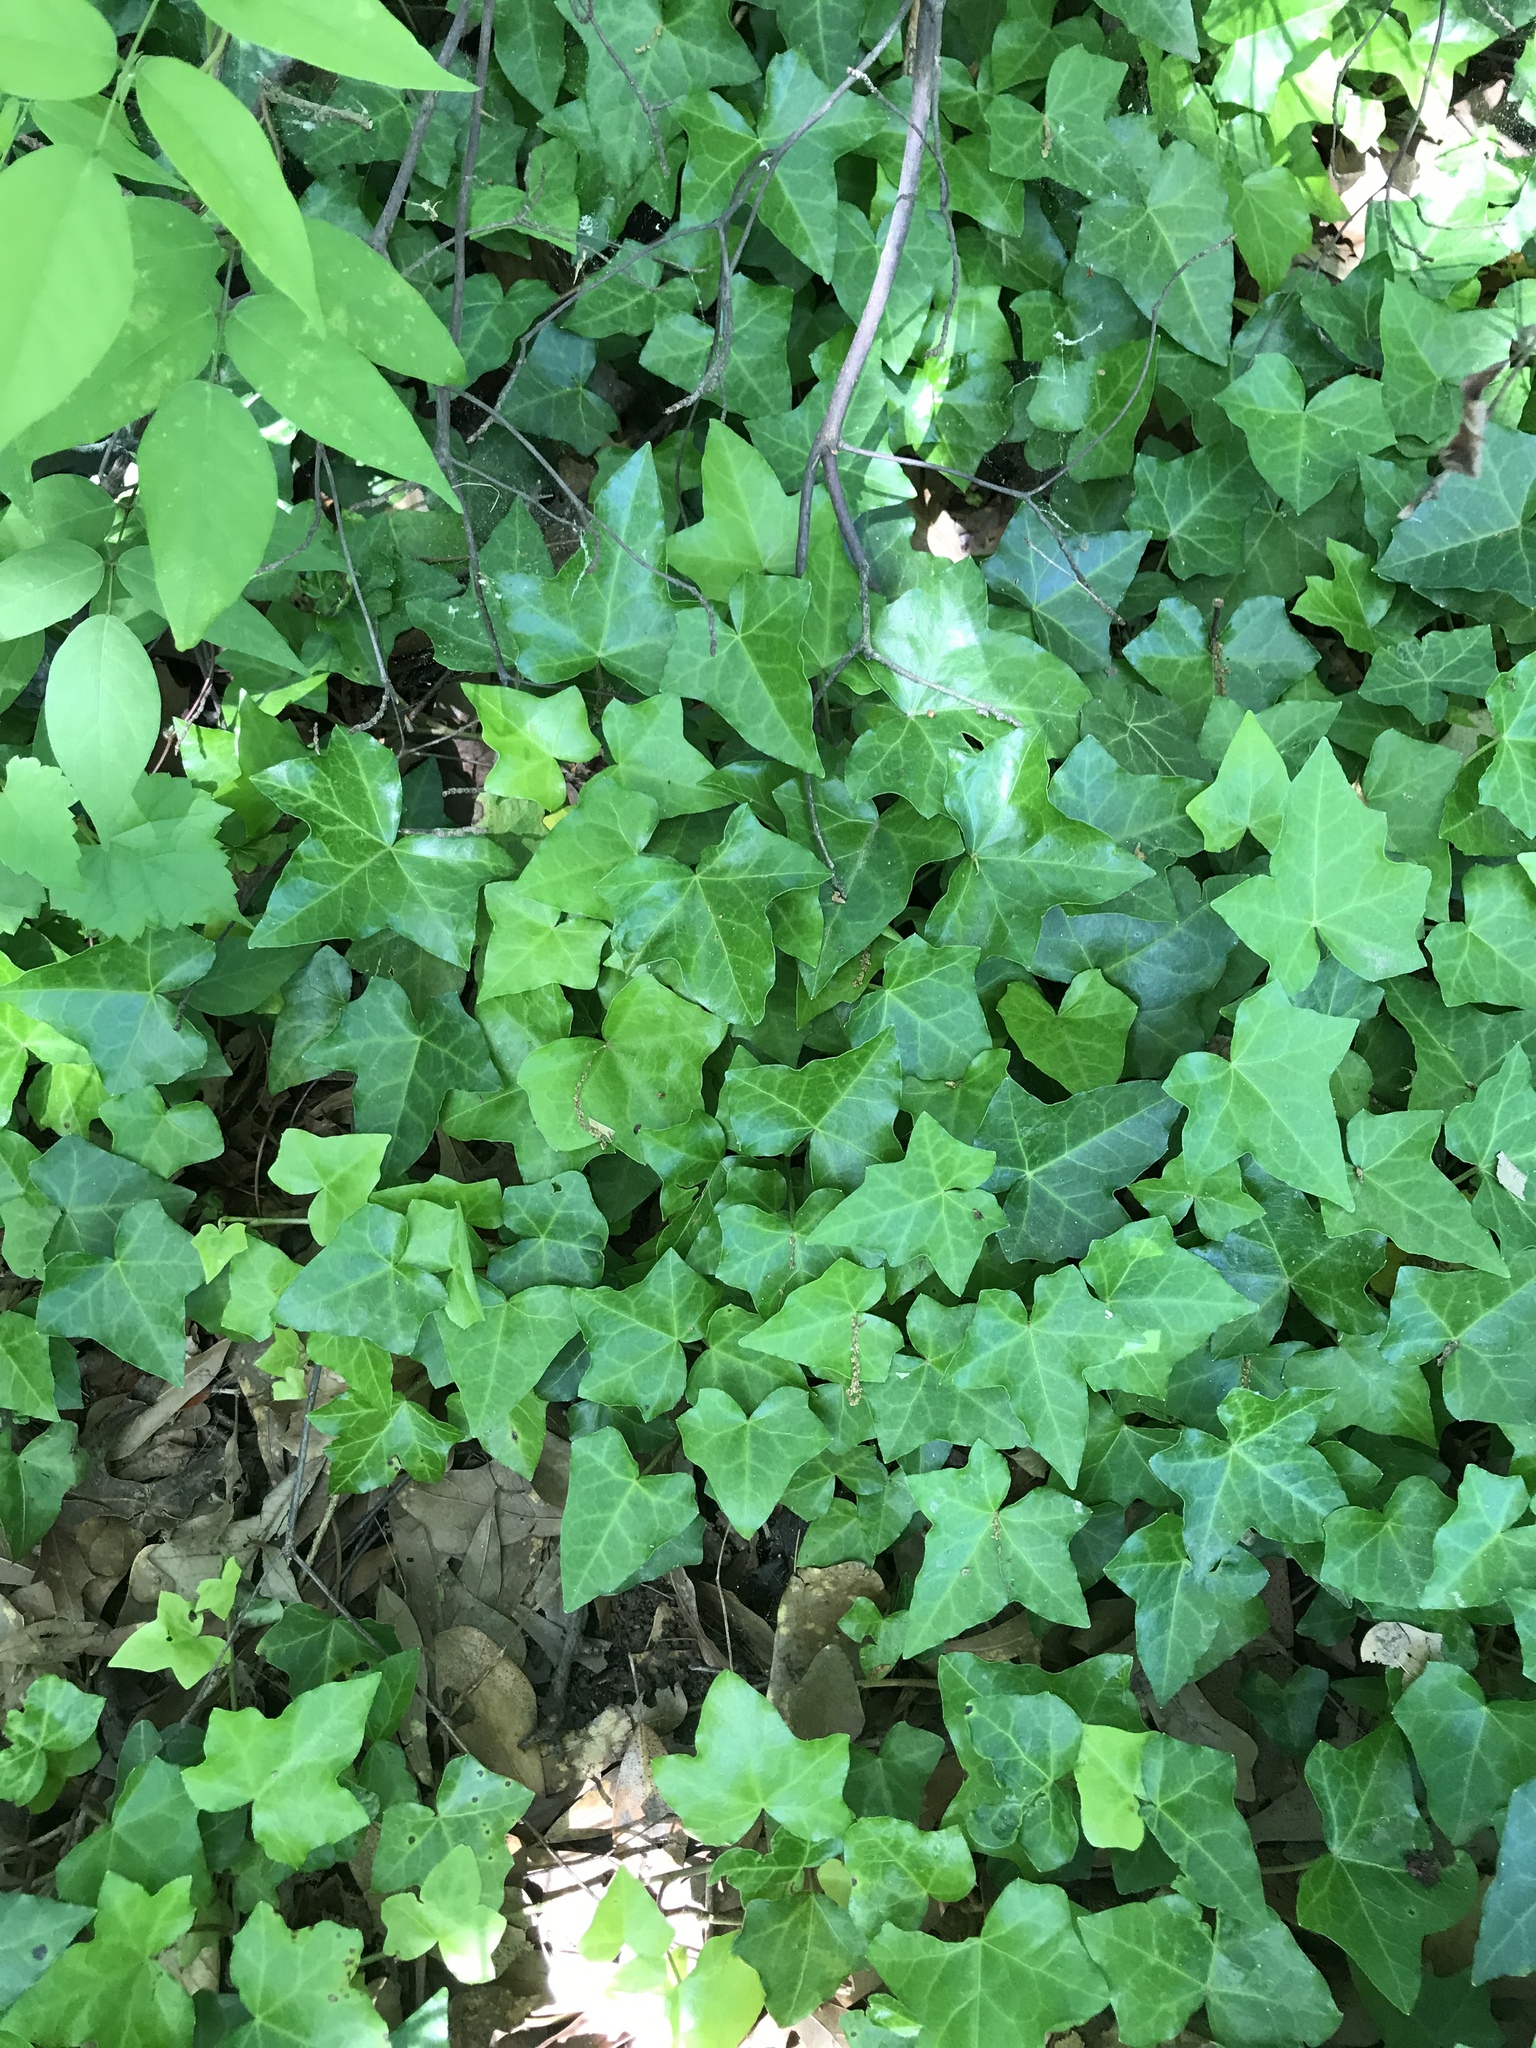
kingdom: Plantae
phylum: Tracheophyta
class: Magnoliopsida
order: Apiales
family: Araliaceae
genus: Hedera
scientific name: Hedera helix
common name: Ivy
